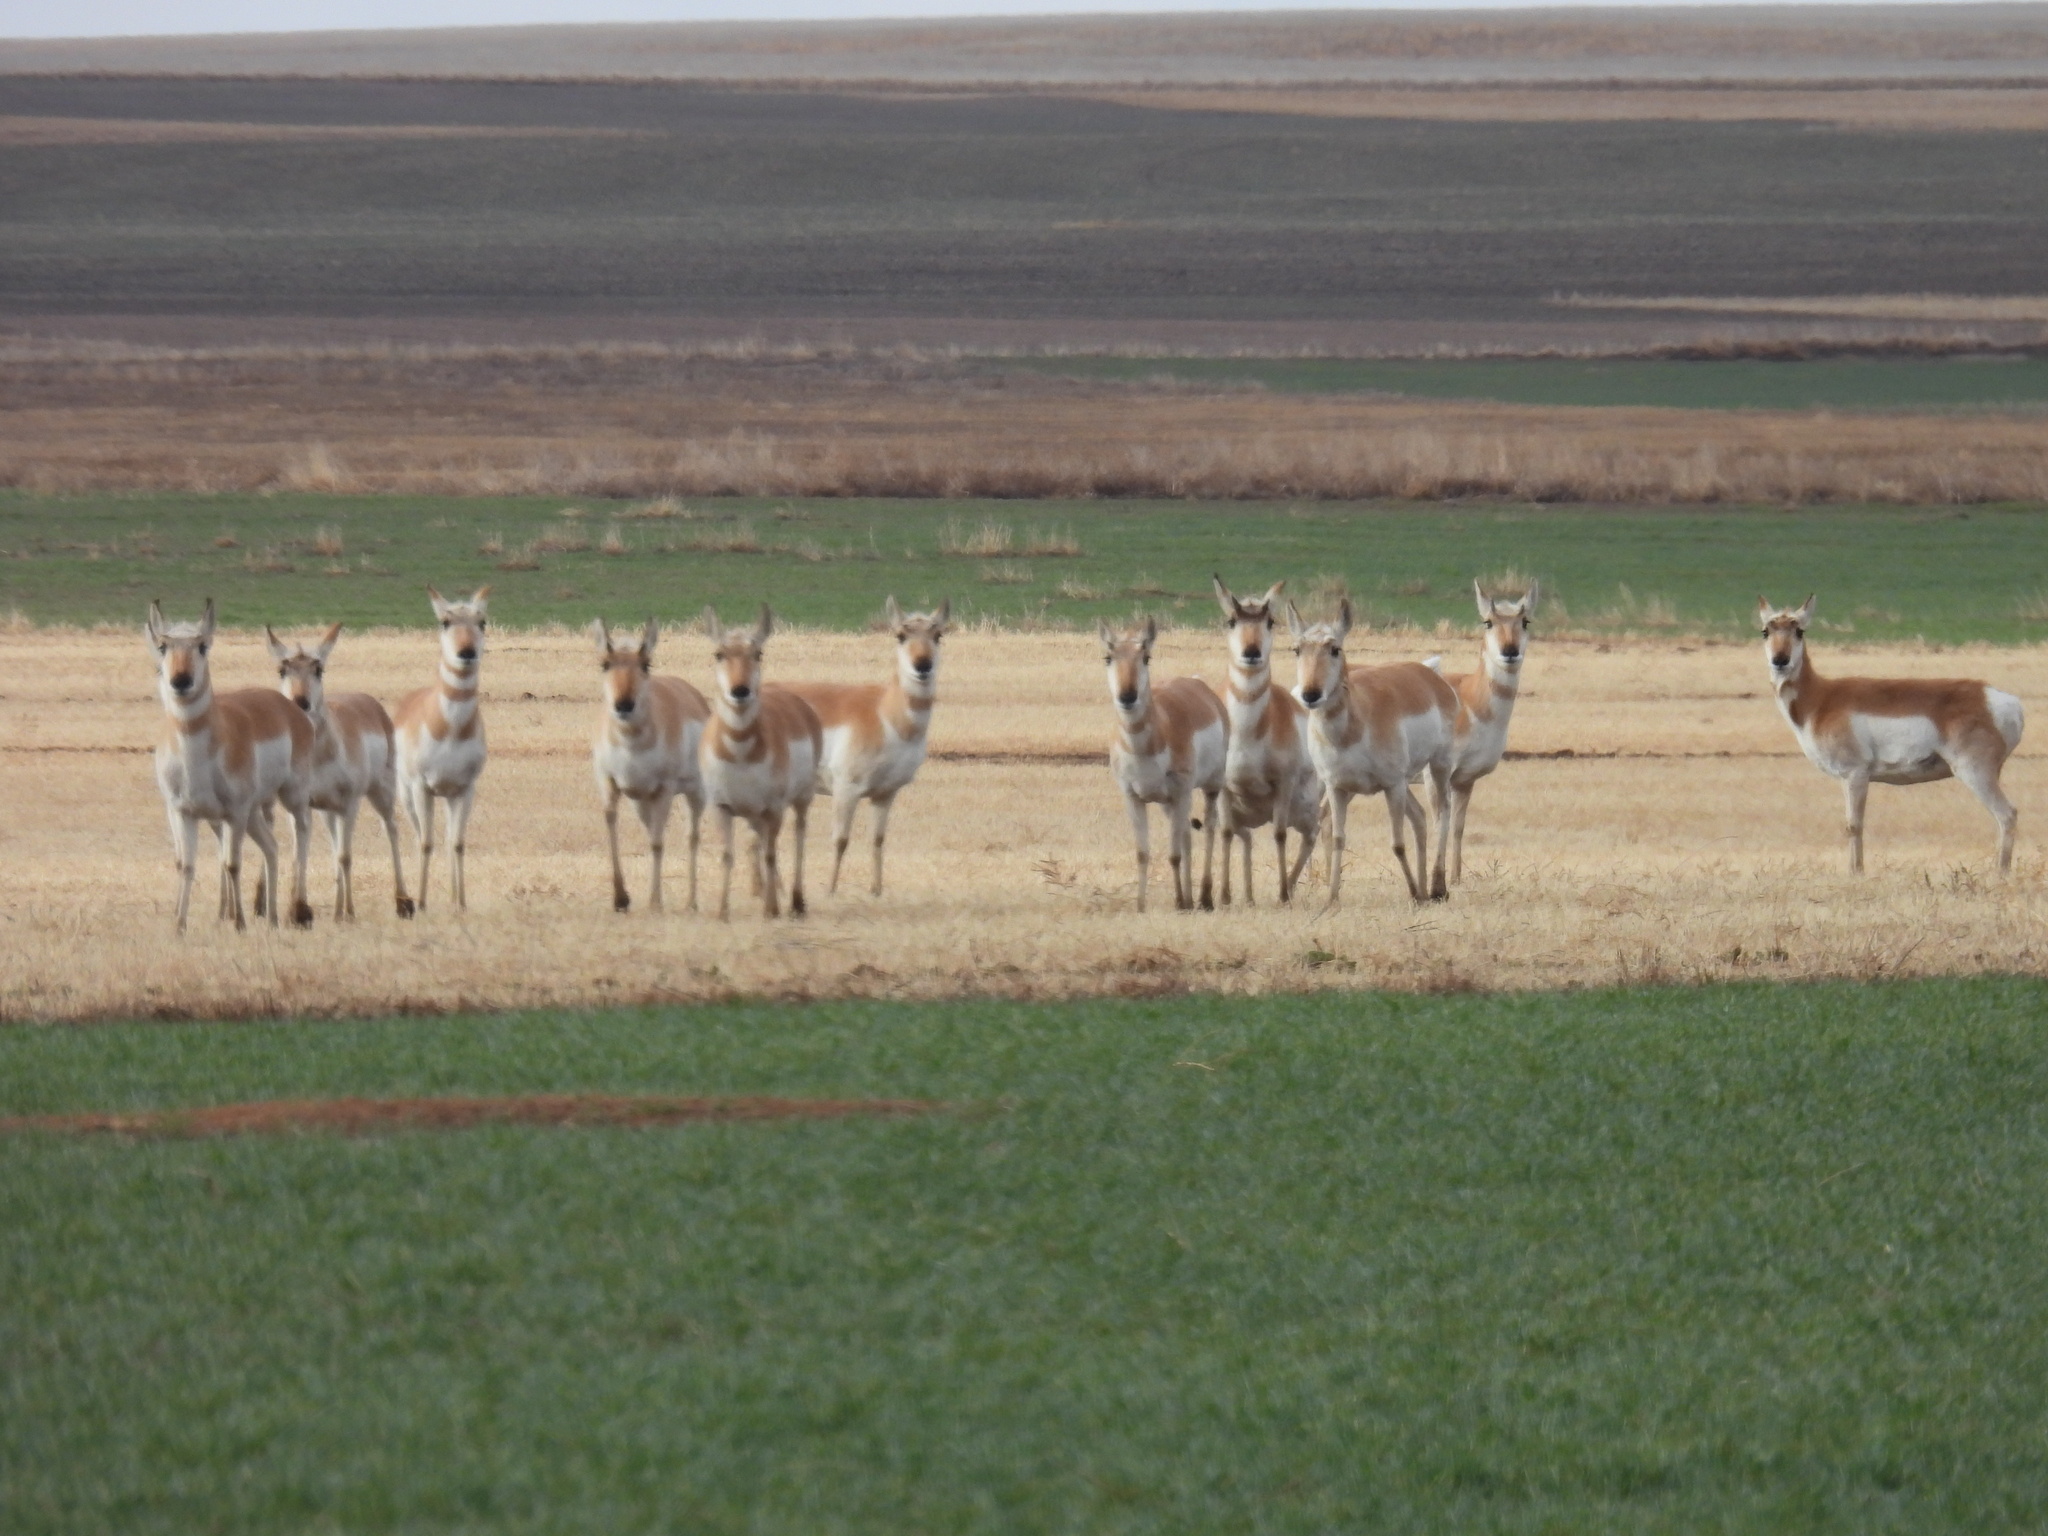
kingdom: Animalia
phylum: Chordata
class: Mammalia
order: Artiodactyla
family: Antilocapridae
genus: Antilocapra
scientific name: Antilocapra americana
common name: Pronghorn
